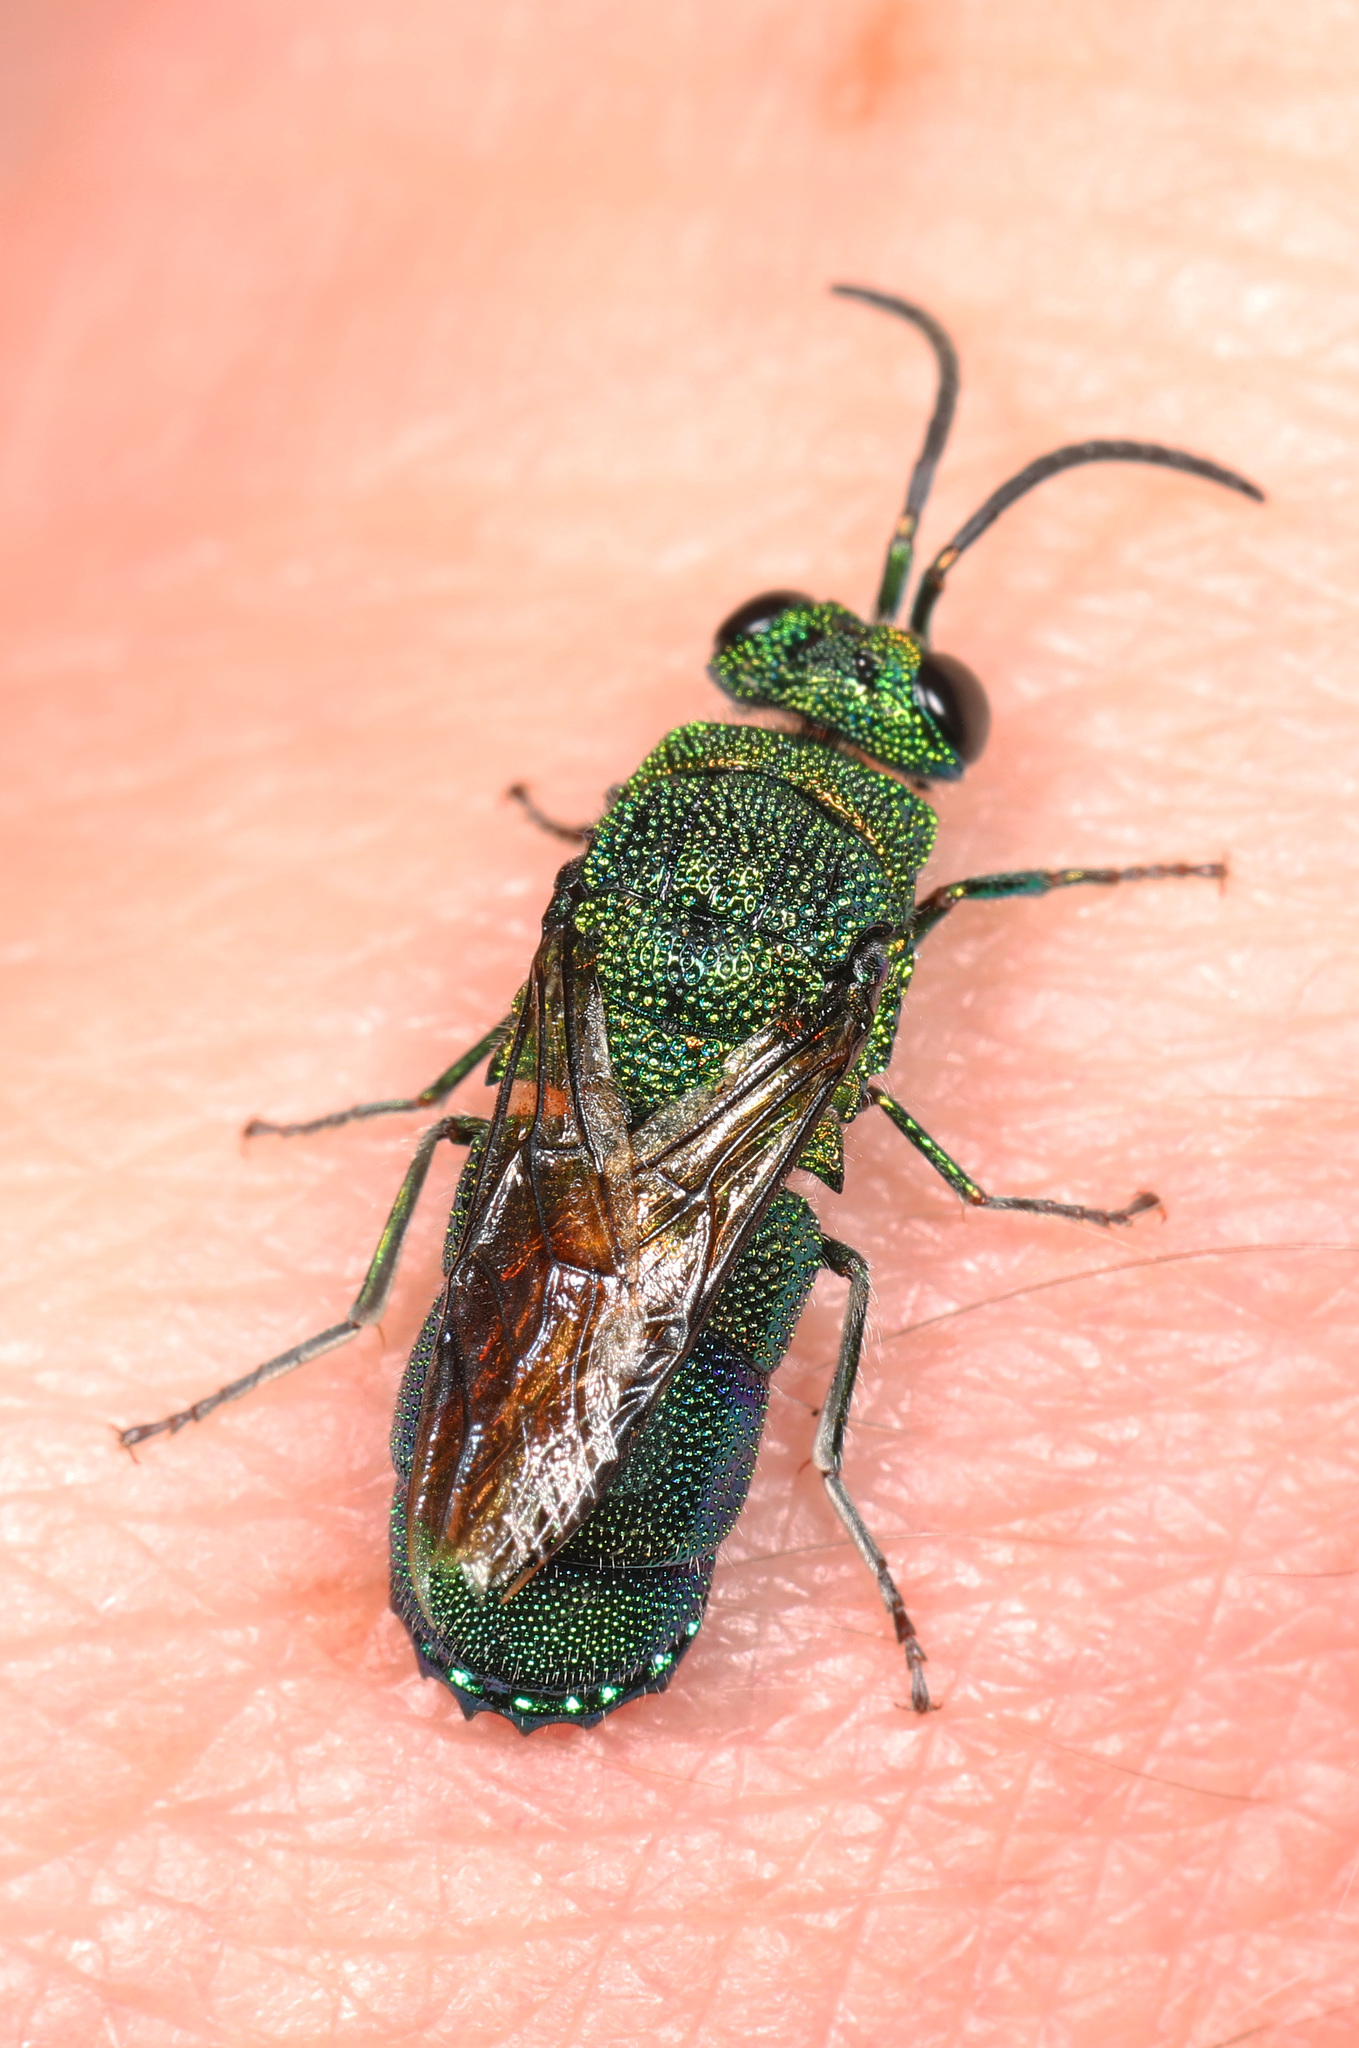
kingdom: Animalia
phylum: Arthropoda
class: Insecta
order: Hymenoptera
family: Chrysididae
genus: Chrysis
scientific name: Chrysis smaragdula
